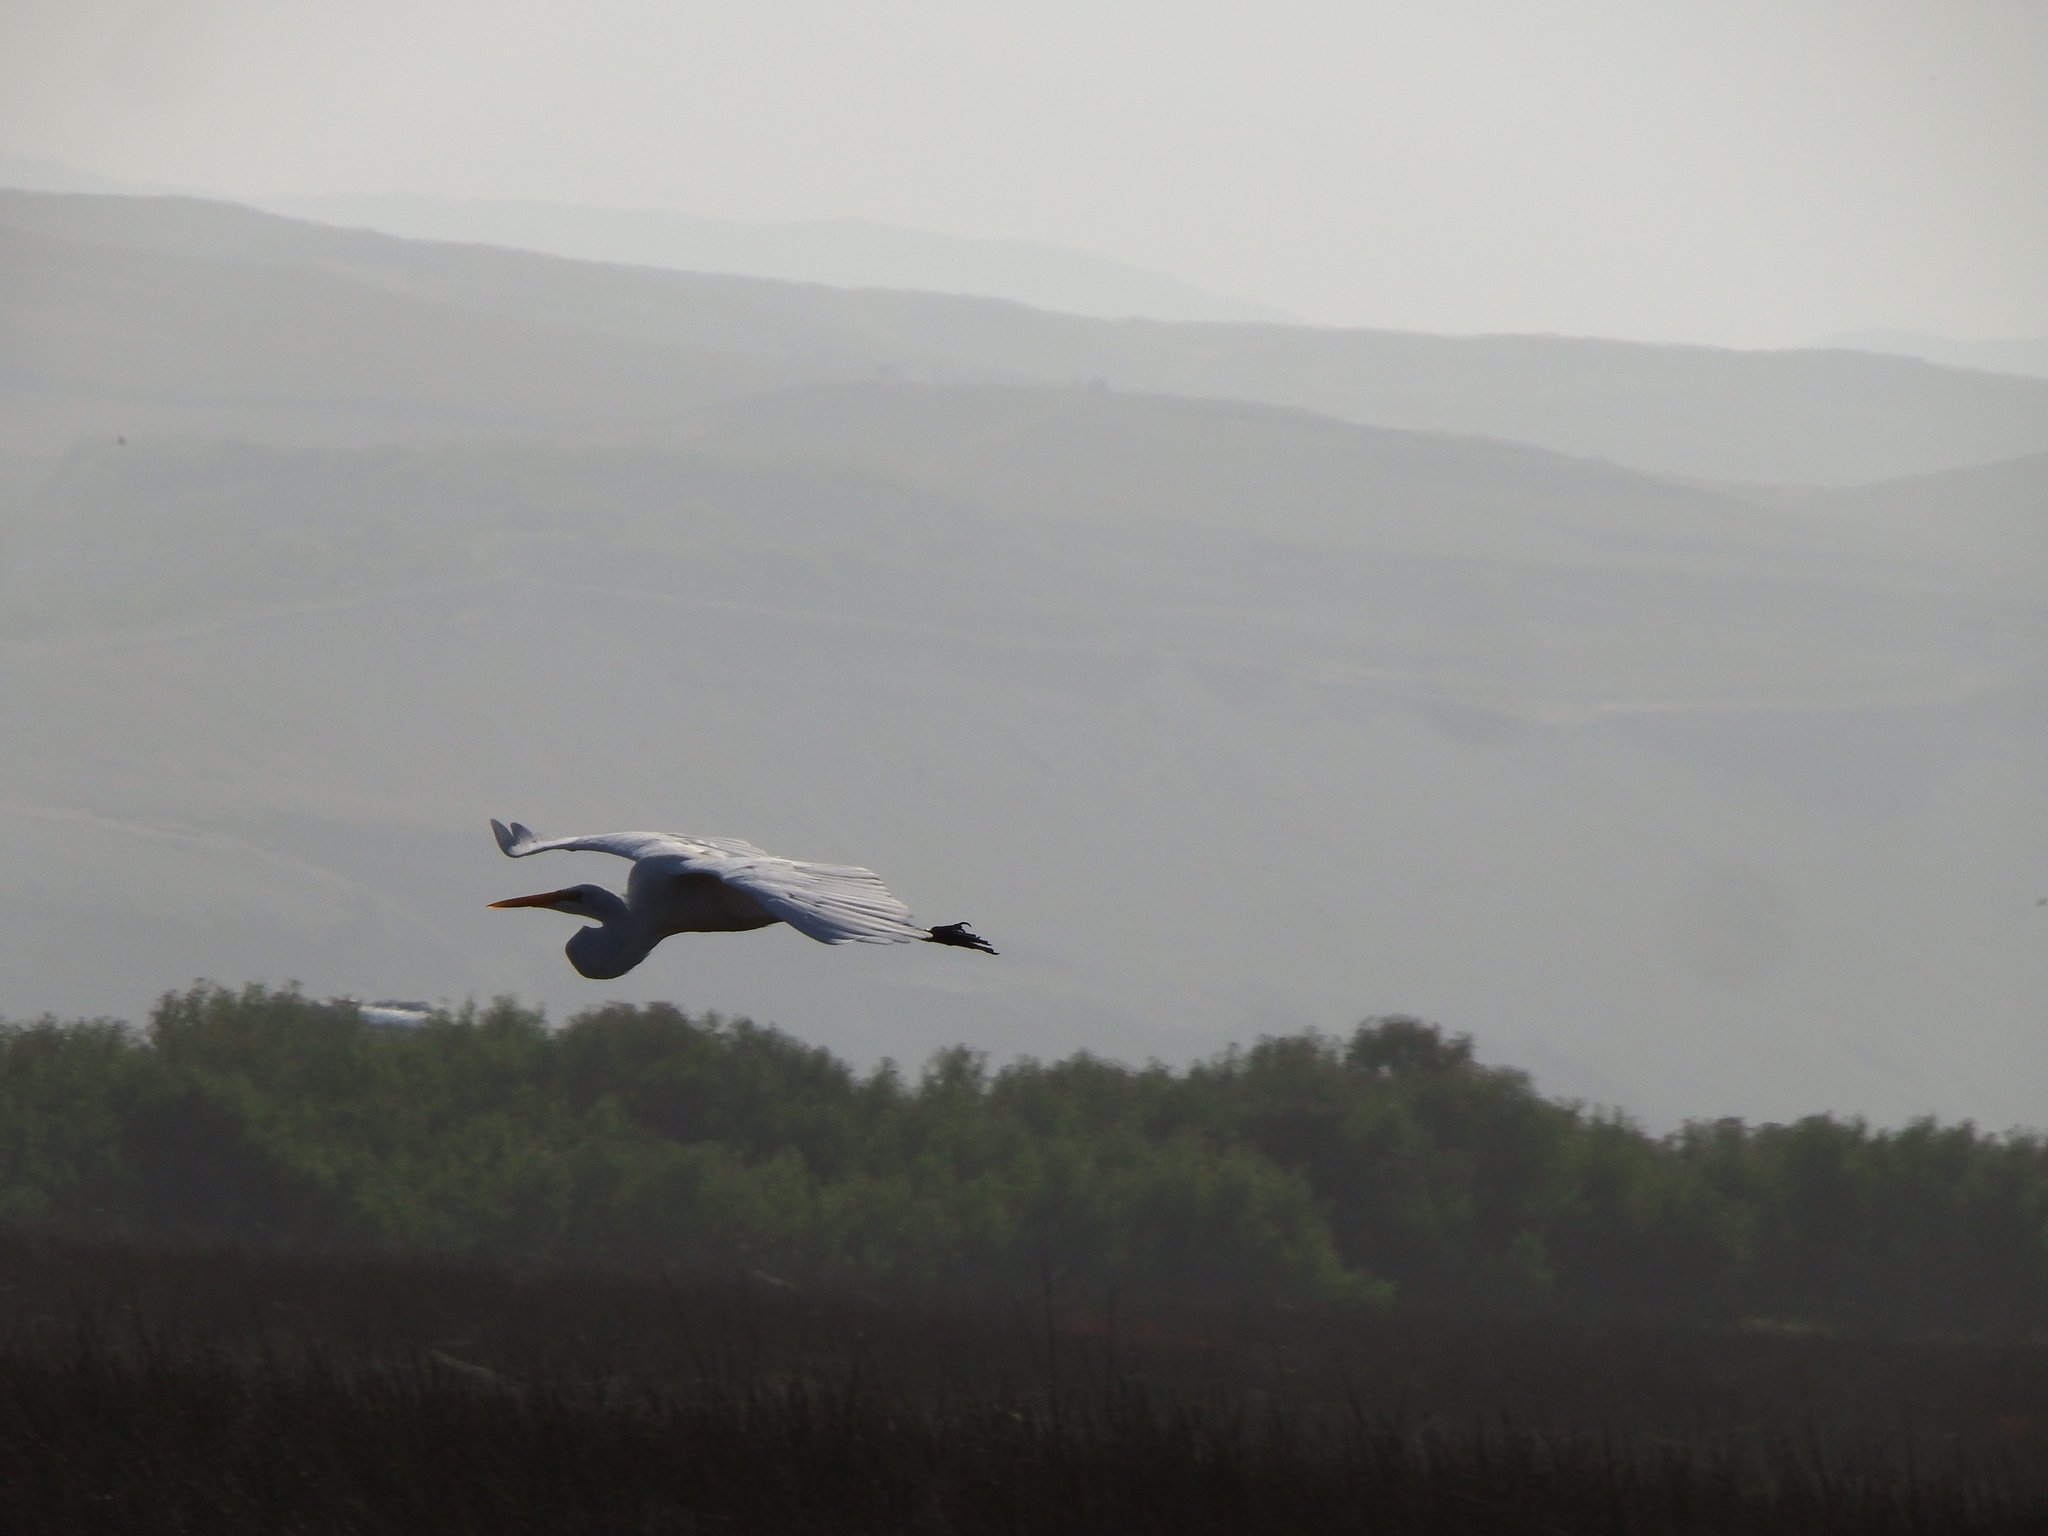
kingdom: Animalia
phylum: Chordata
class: Aves
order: Pelecaniformes
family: Ardeidae
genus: Ardea
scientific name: Ardea alba
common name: Great egret
